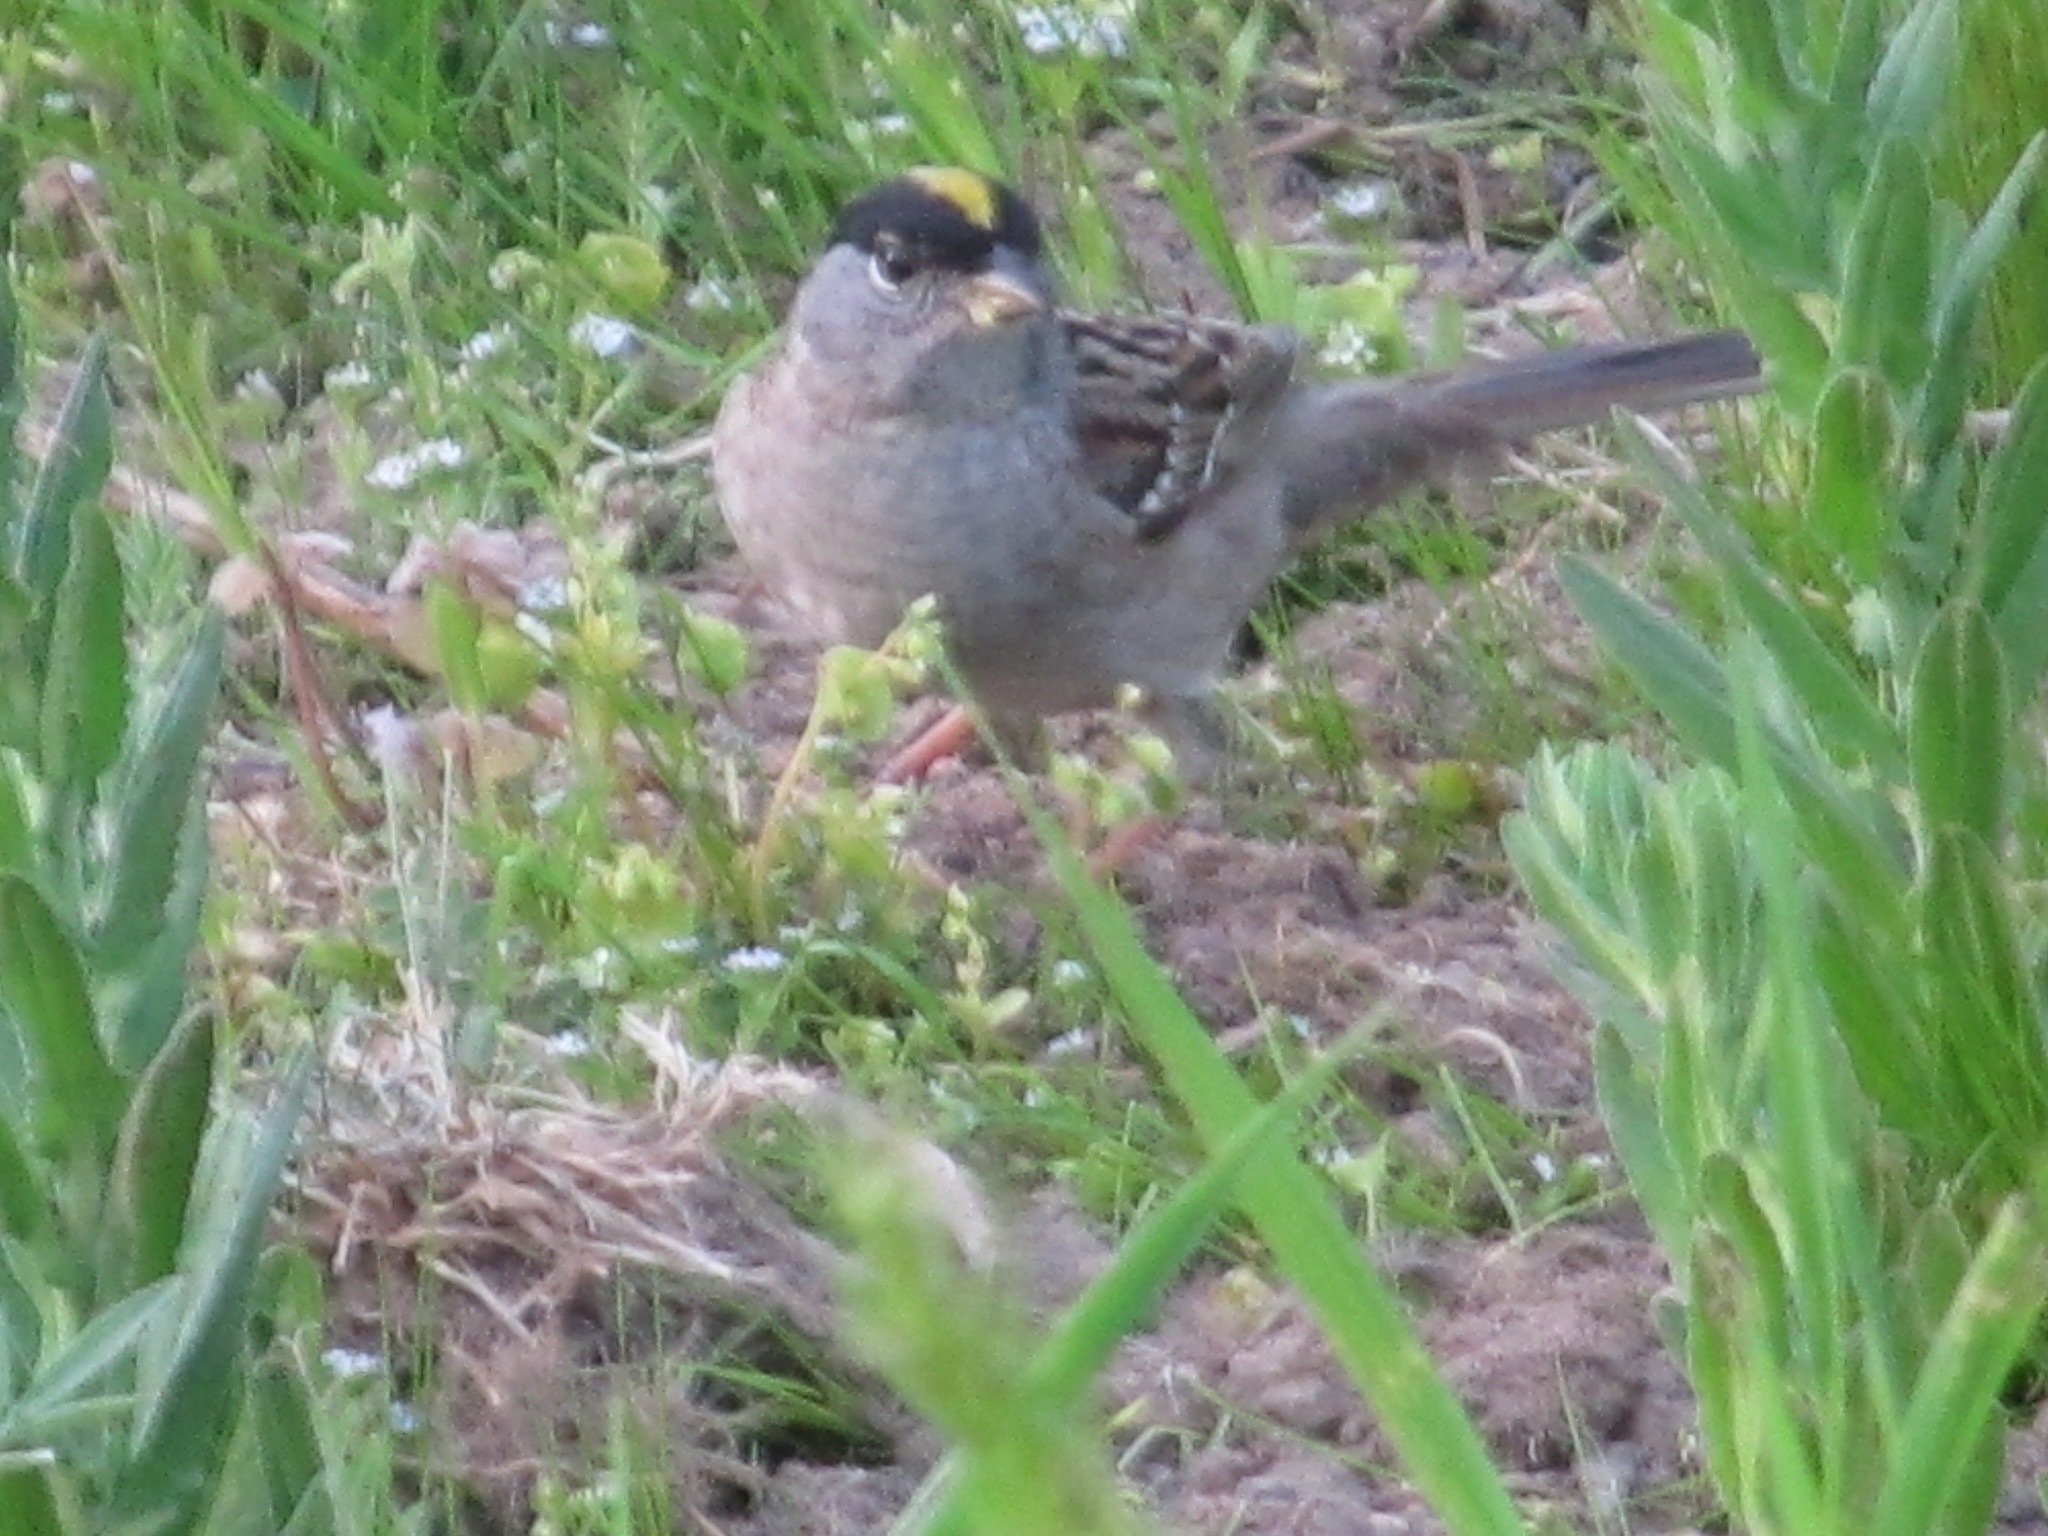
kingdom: Animalia
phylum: Chordata
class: Aves
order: Passeriformes
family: Passerellidae
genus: Zonotrichia
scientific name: Zonotrichia atricapilla
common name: Golden-crowned sparrow
